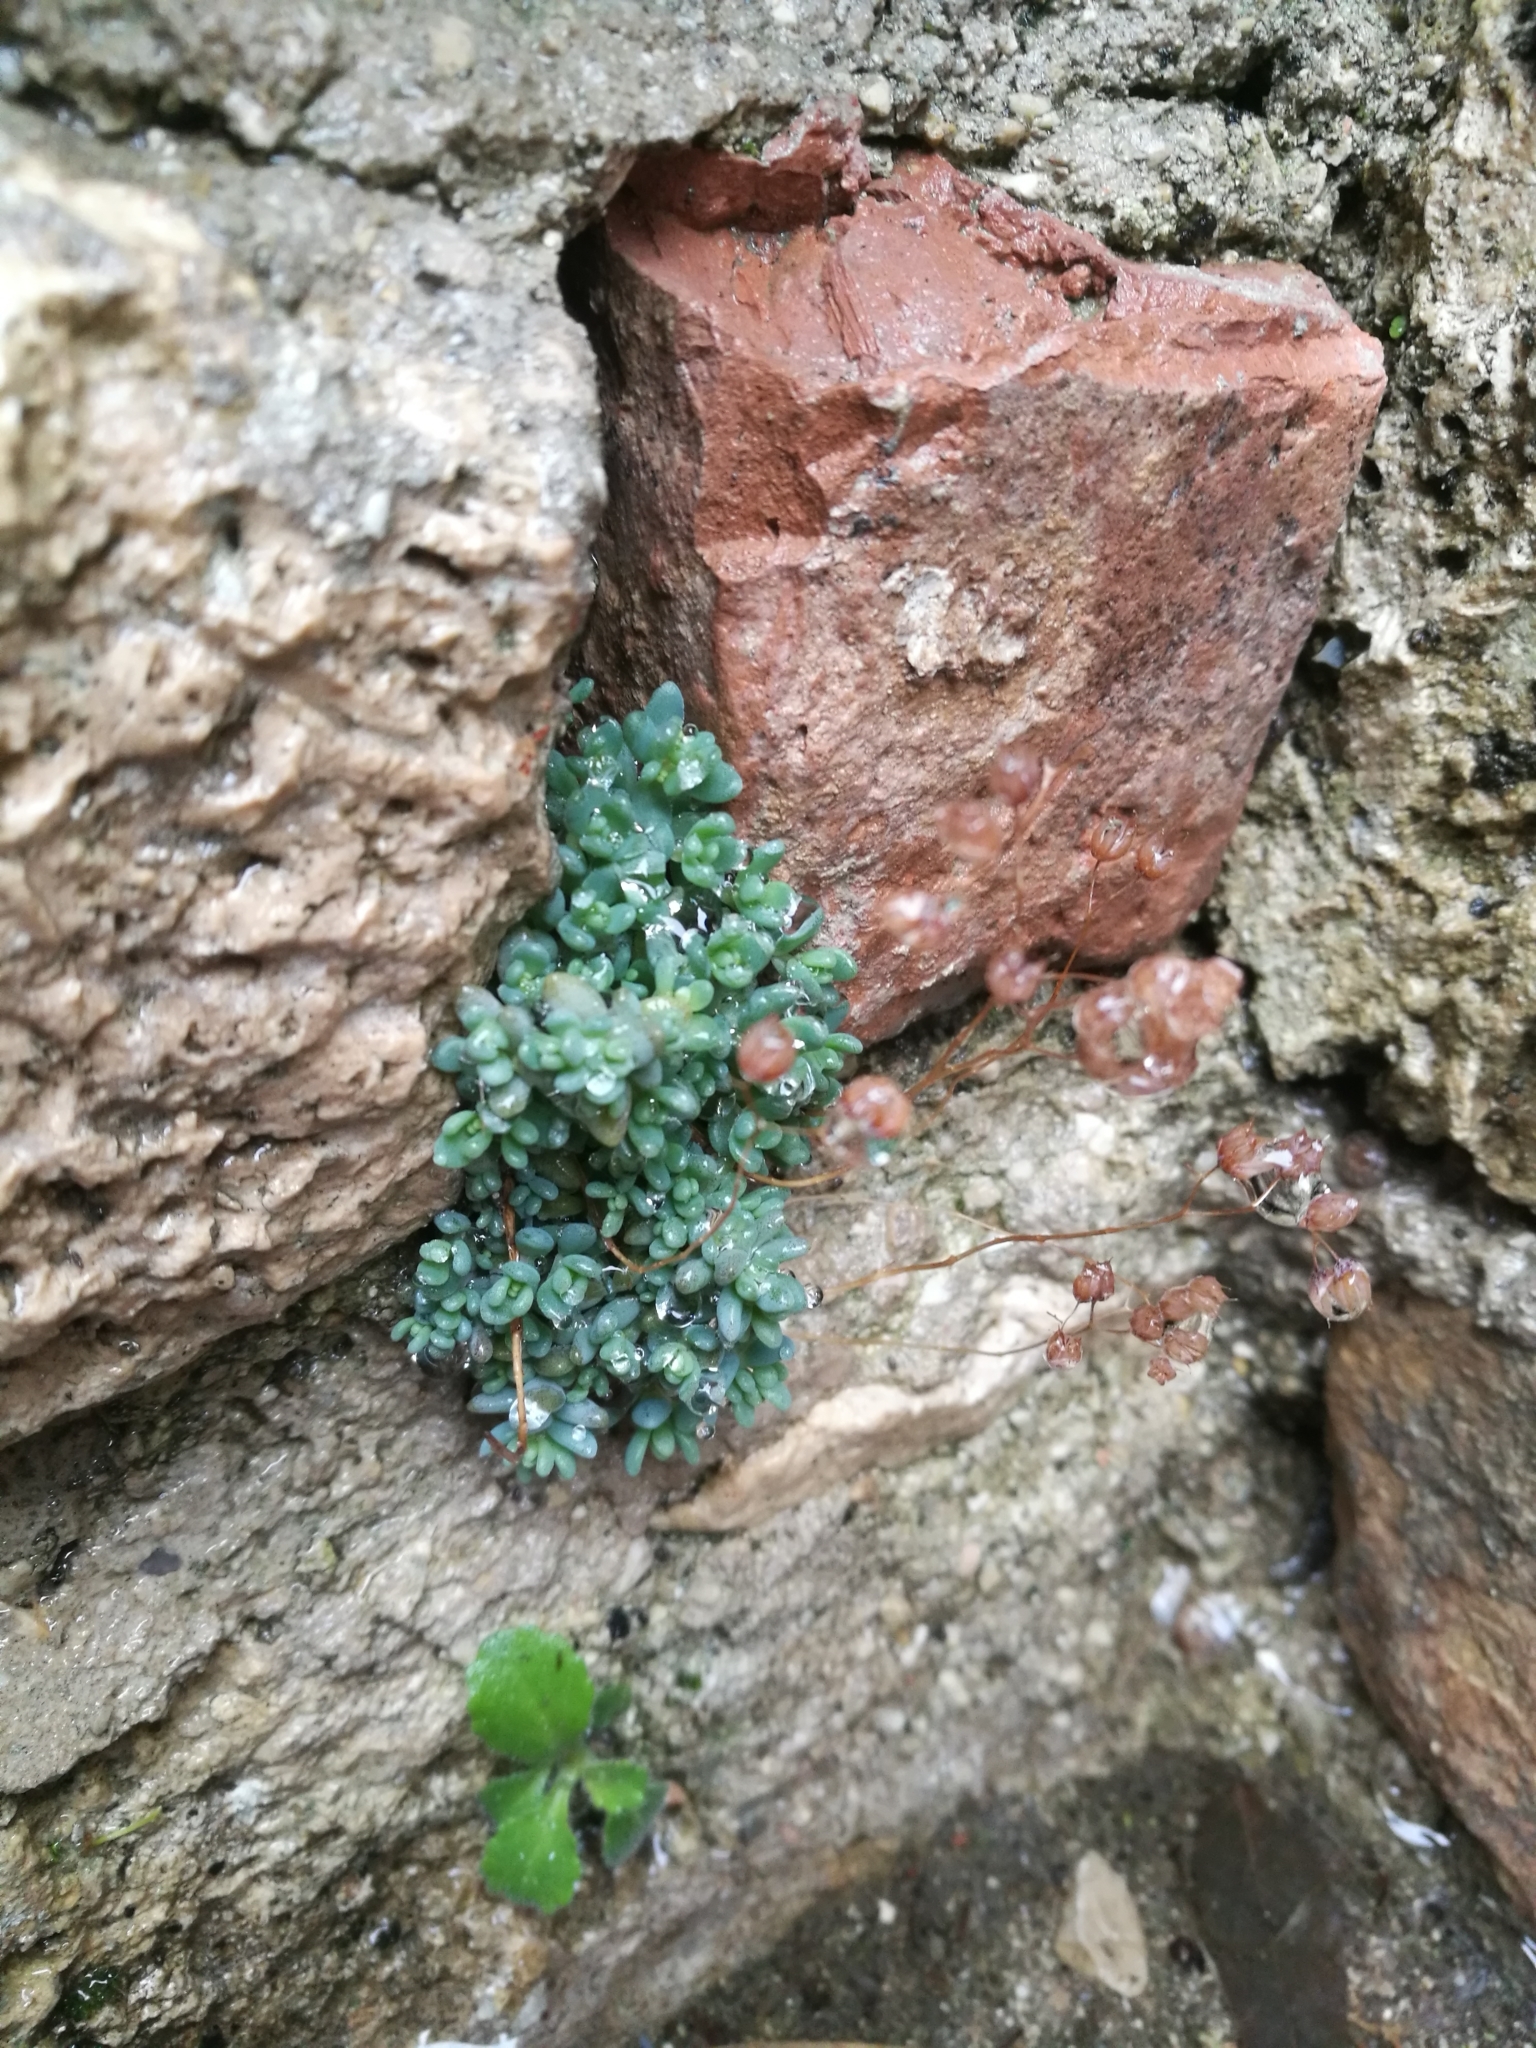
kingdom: Plantae
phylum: Tracheophyta
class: Magnoliopsida
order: Saxifragales
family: Crassulaceae
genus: Sedum
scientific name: Sedum dasyphyllum
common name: Thick-leaf stonecrop
